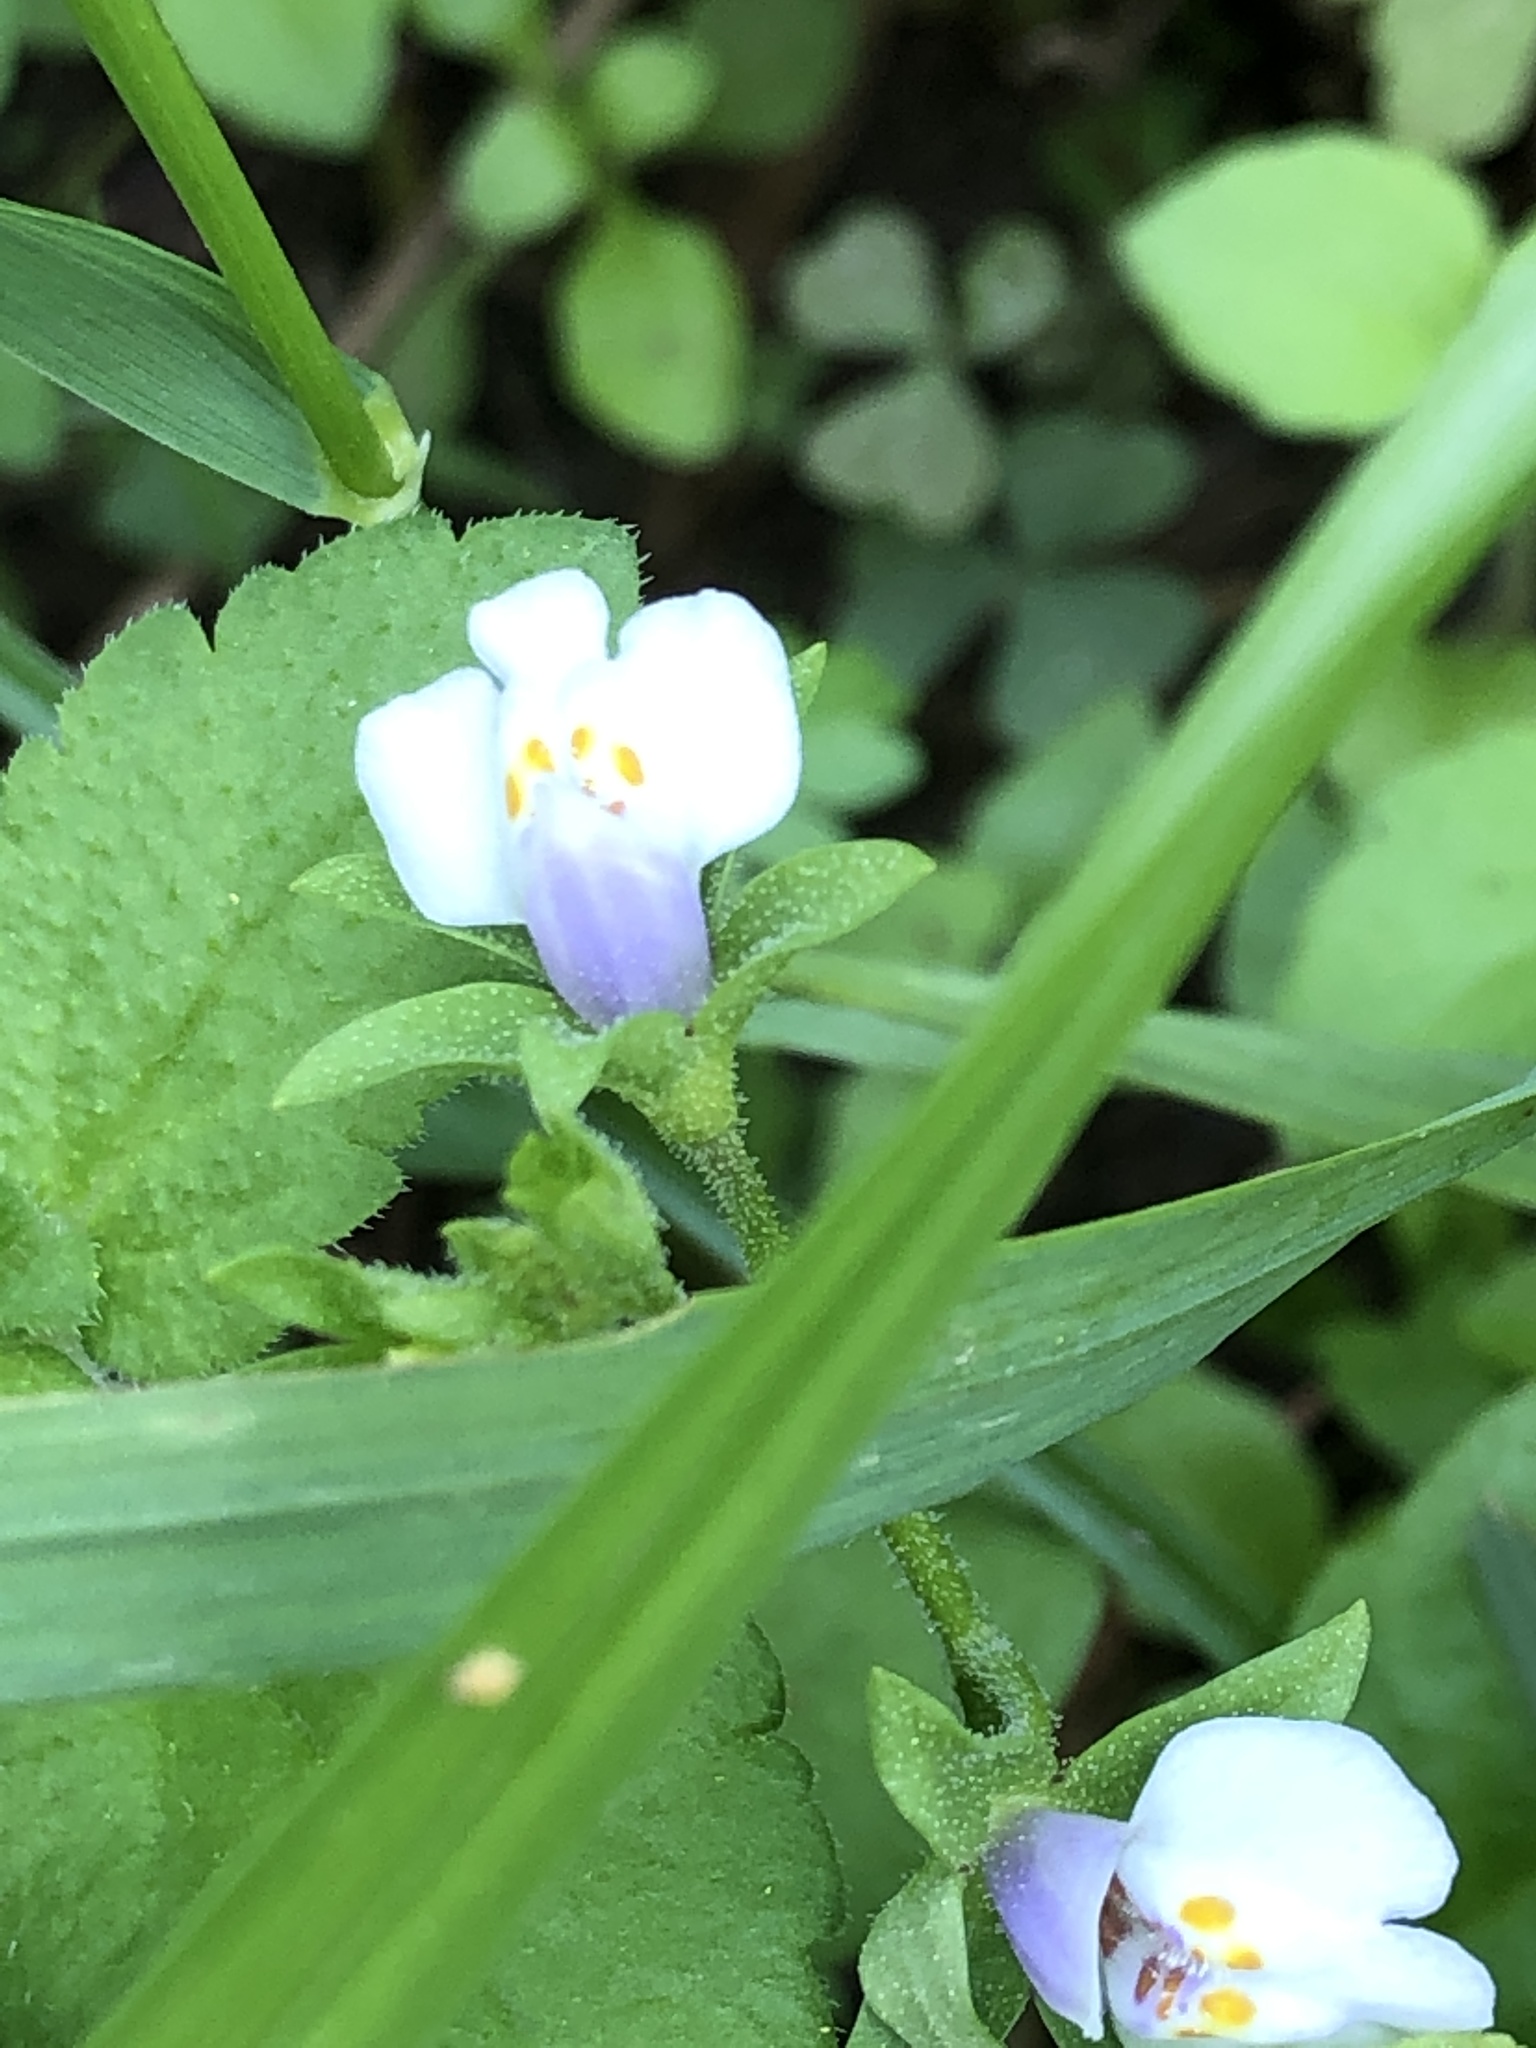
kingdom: Plantae
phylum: Tracheophyta
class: Magnoliopsida
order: Lamiales
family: Mazaceae
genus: Mazus
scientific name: Mazus pumilus
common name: Japanese mazus
